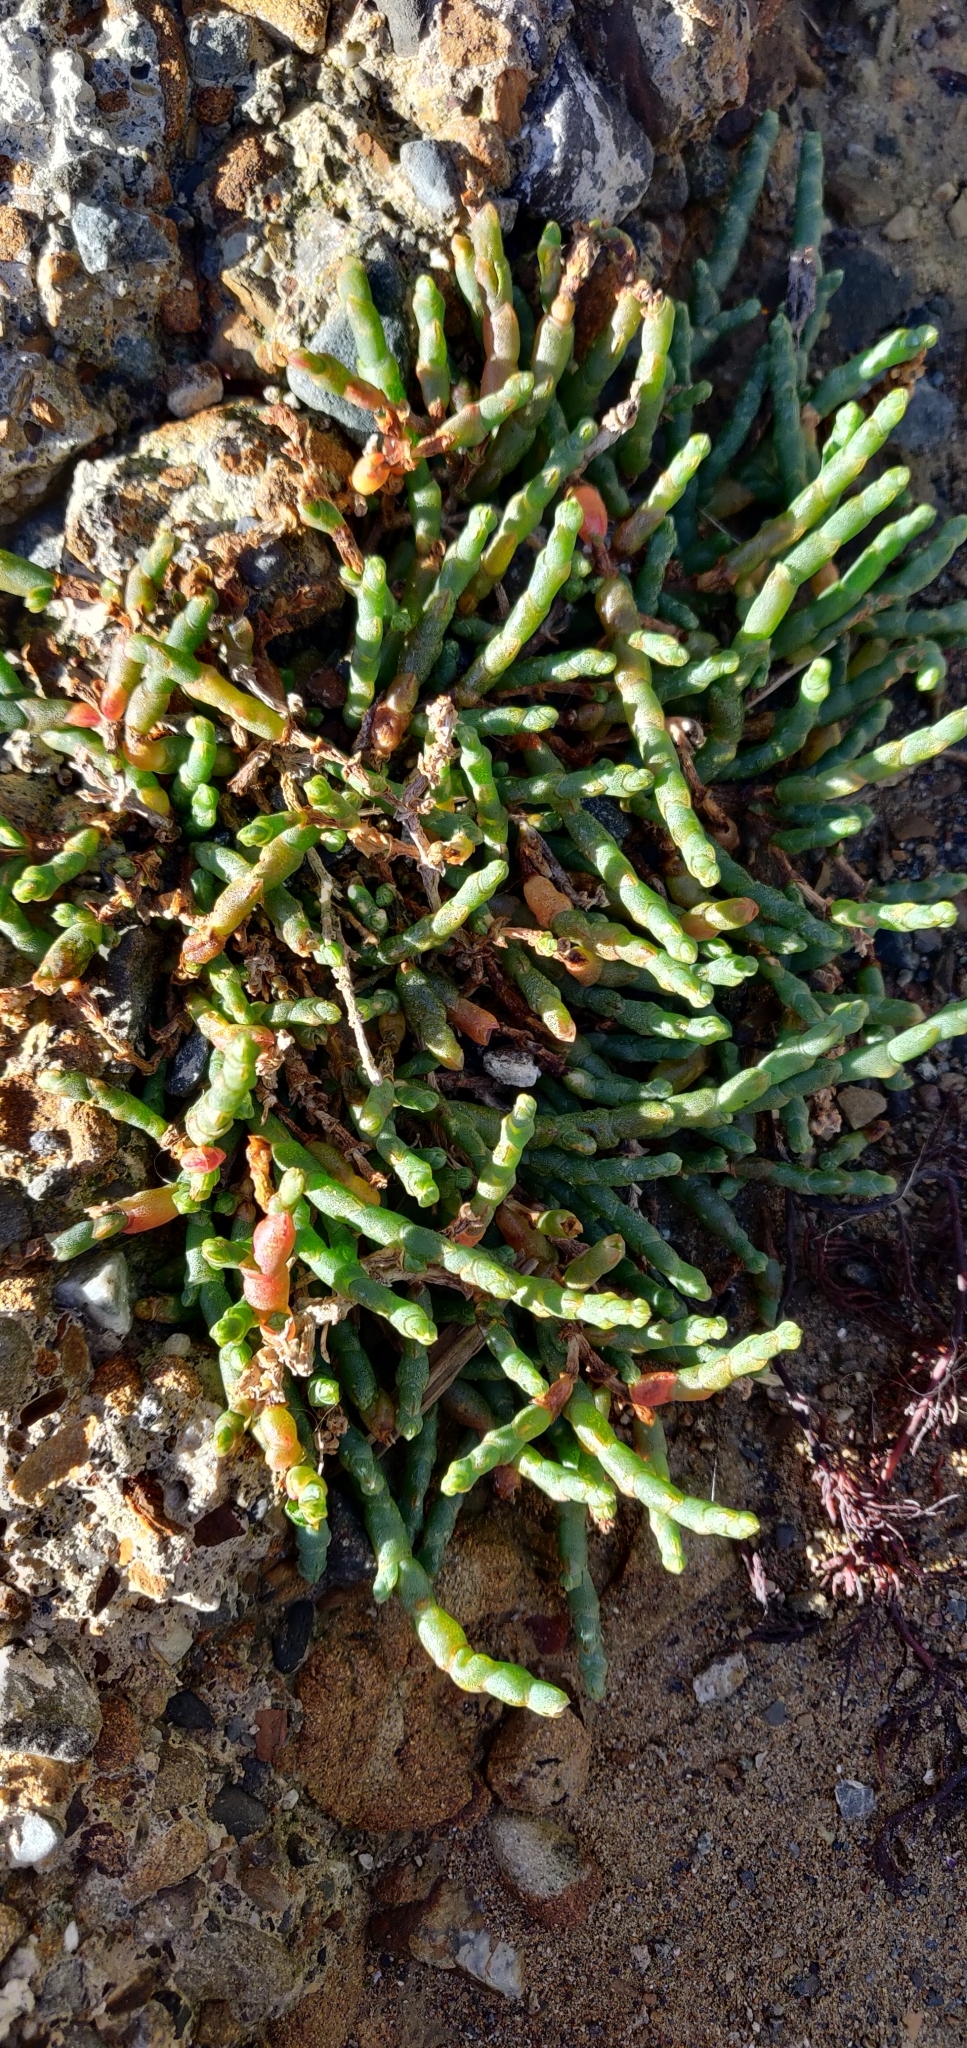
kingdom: Plantae
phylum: Tracheophyta
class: Magnoliopsida
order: Caryophyllales
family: Amaranthaceae
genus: Salicornia
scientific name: Salicornia quinqueflora
